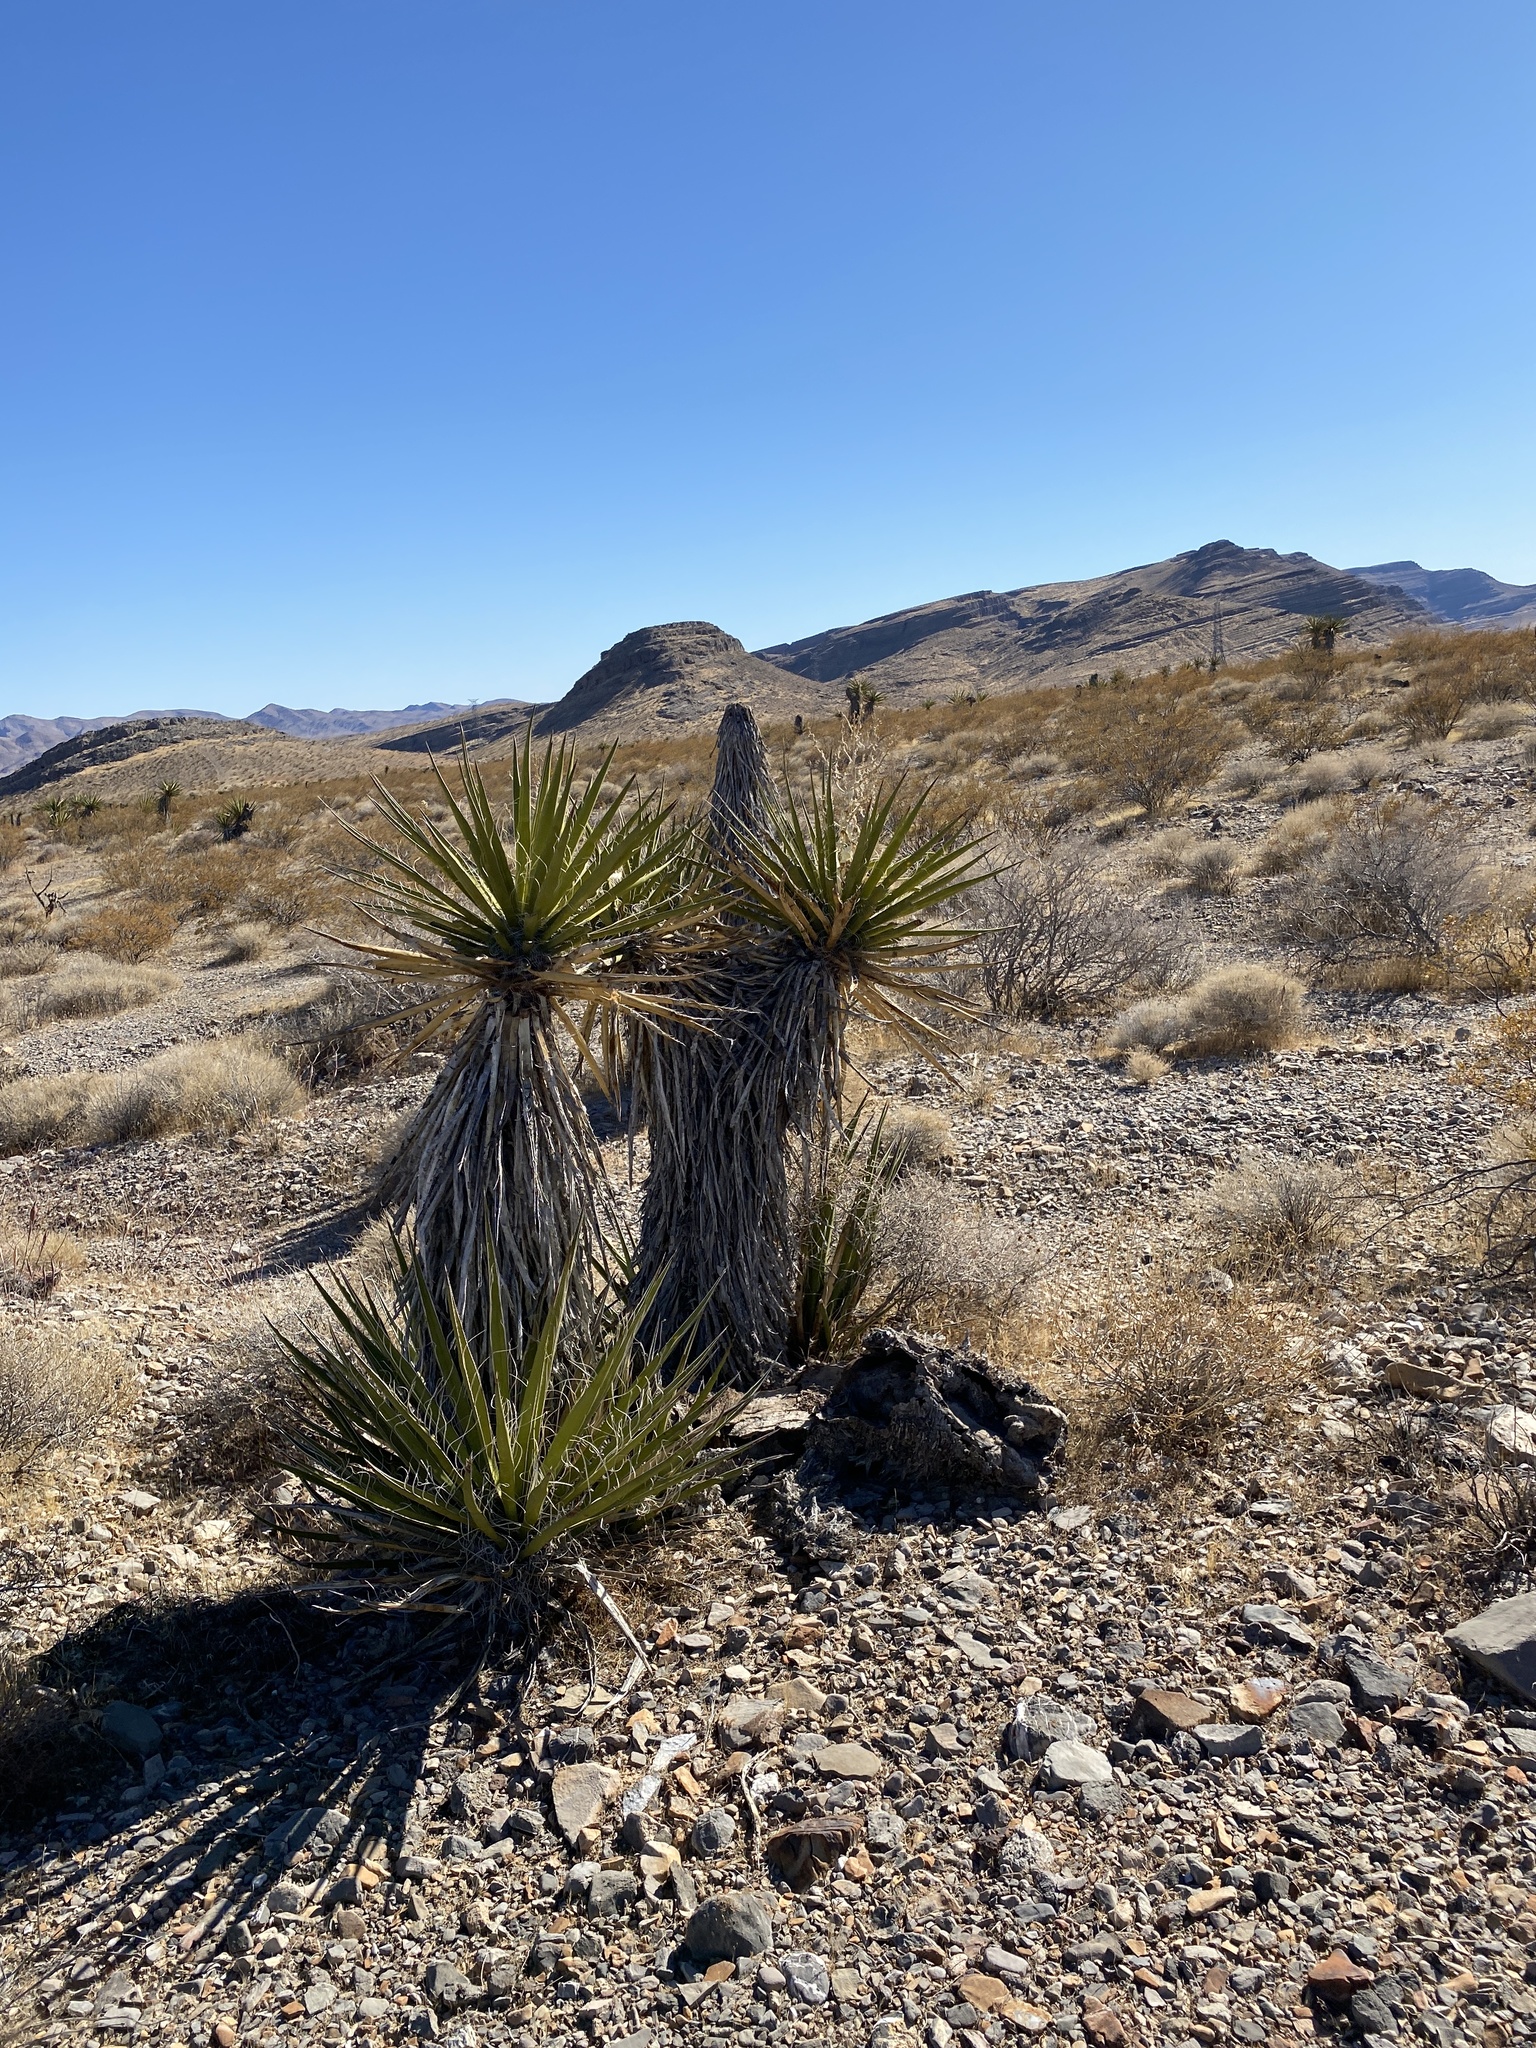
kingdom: Plantae
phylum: Tracheophyta
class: Liliopsida
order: Asparagales
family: Asparagaceae
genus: Yucca
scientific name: Yucca schidigera
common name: Mojave yucca
